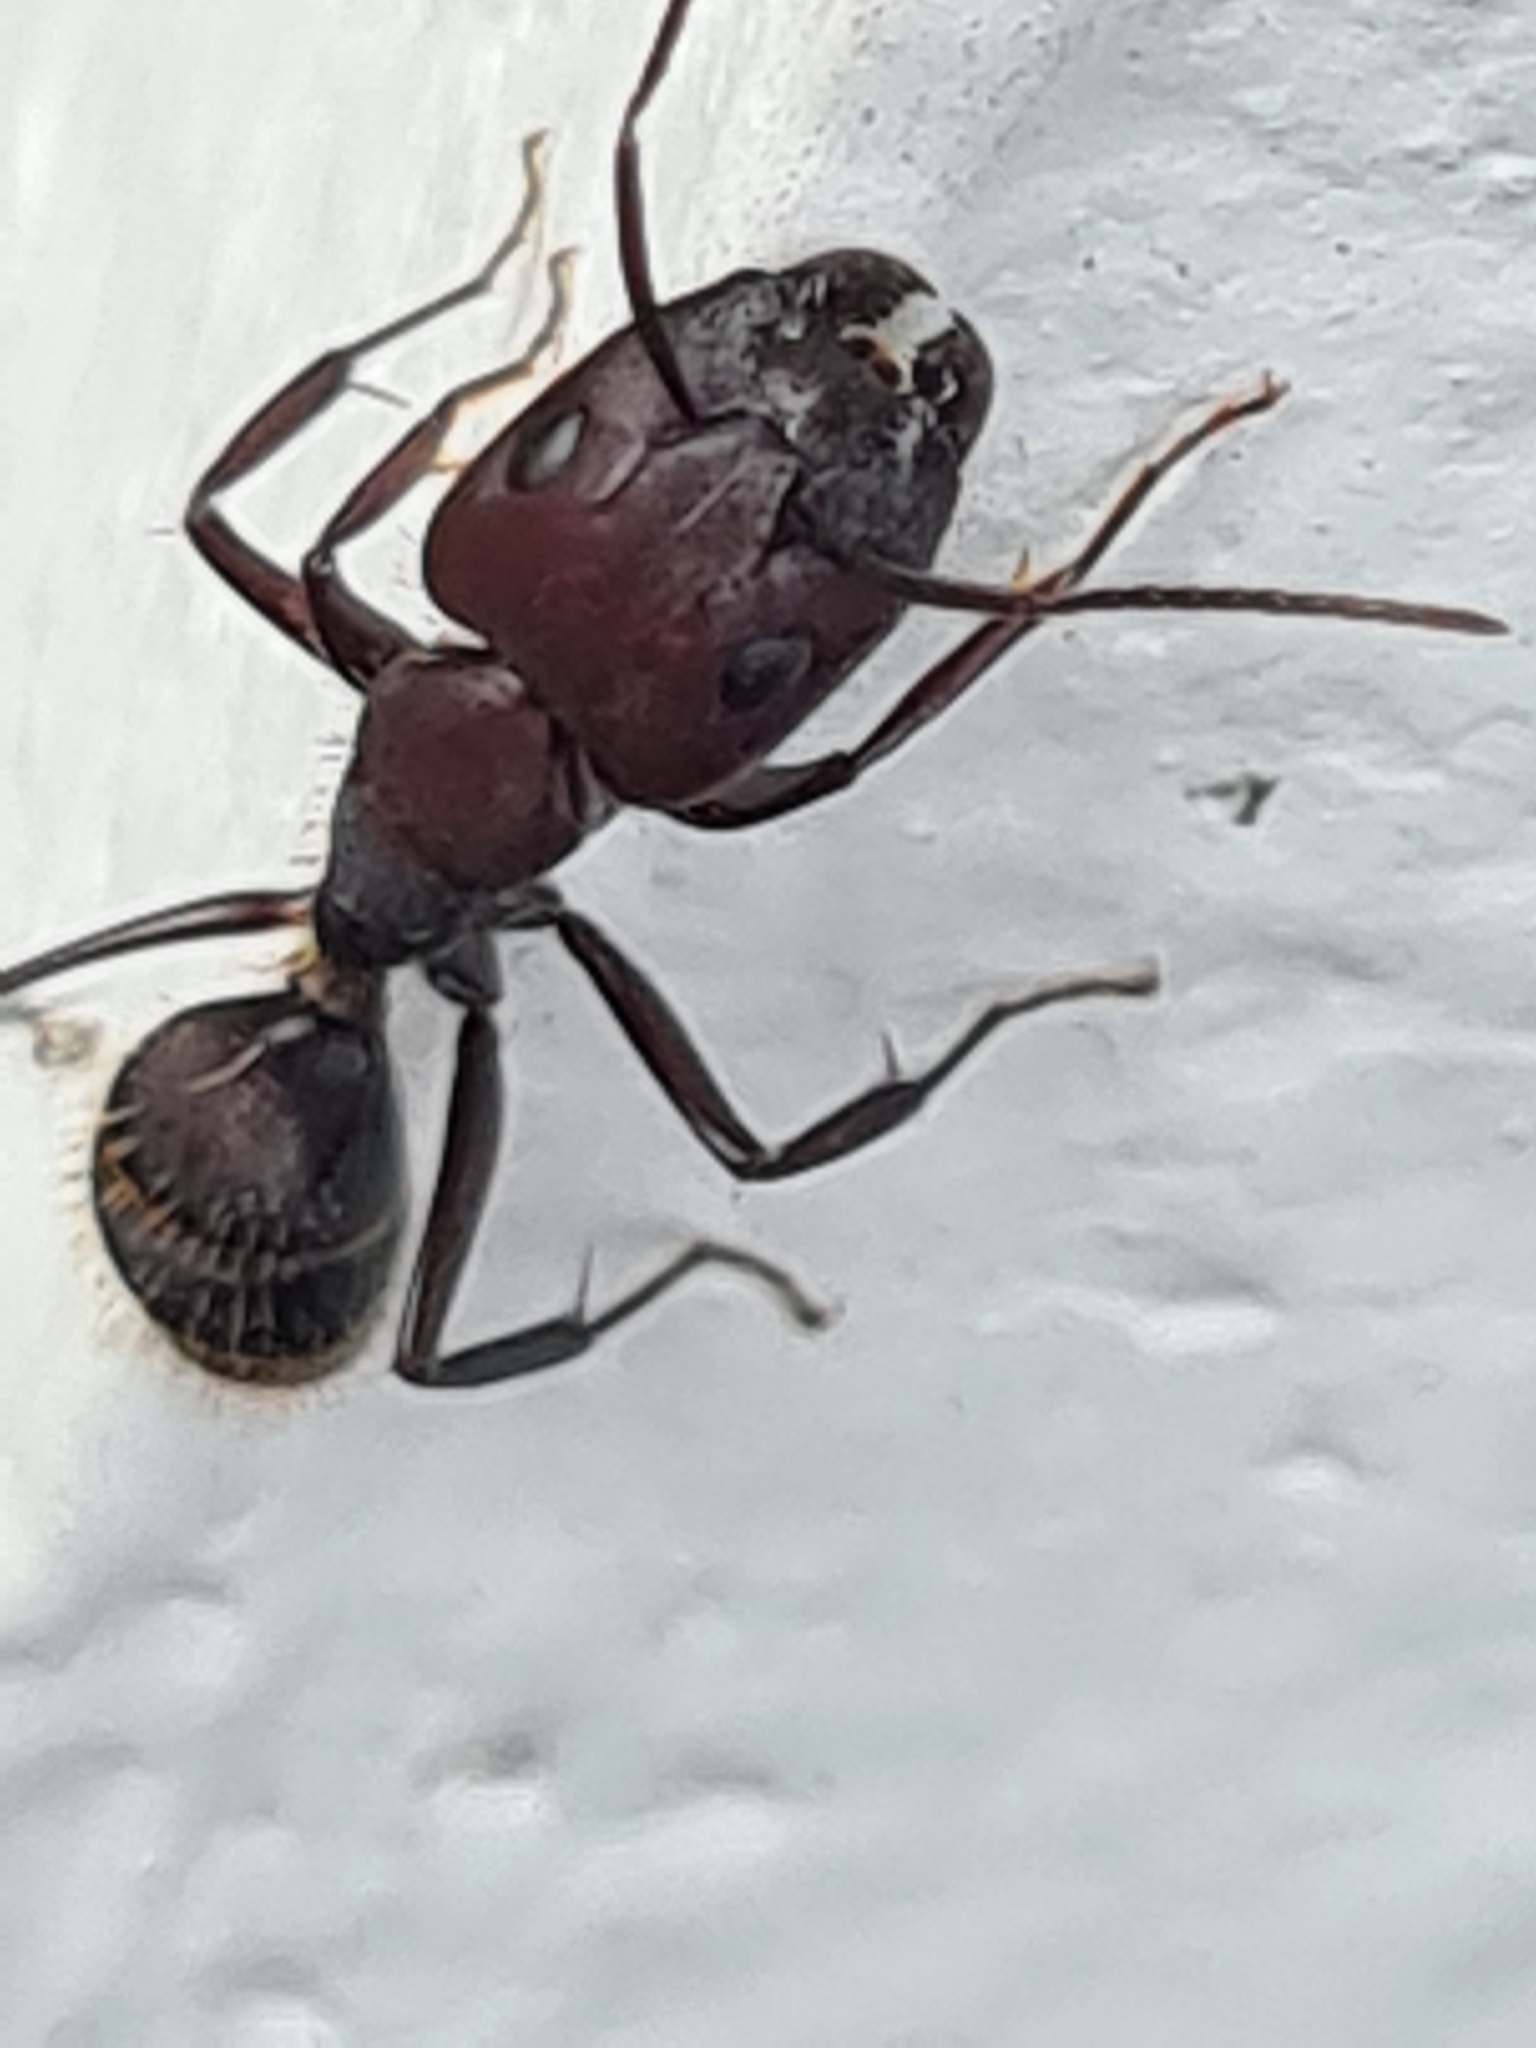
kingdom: Animalia
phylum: Arthropoda
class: Insecta
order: Hymenoptera
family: Formicidae
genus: Camponotus
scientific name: Camponotus leydigi
